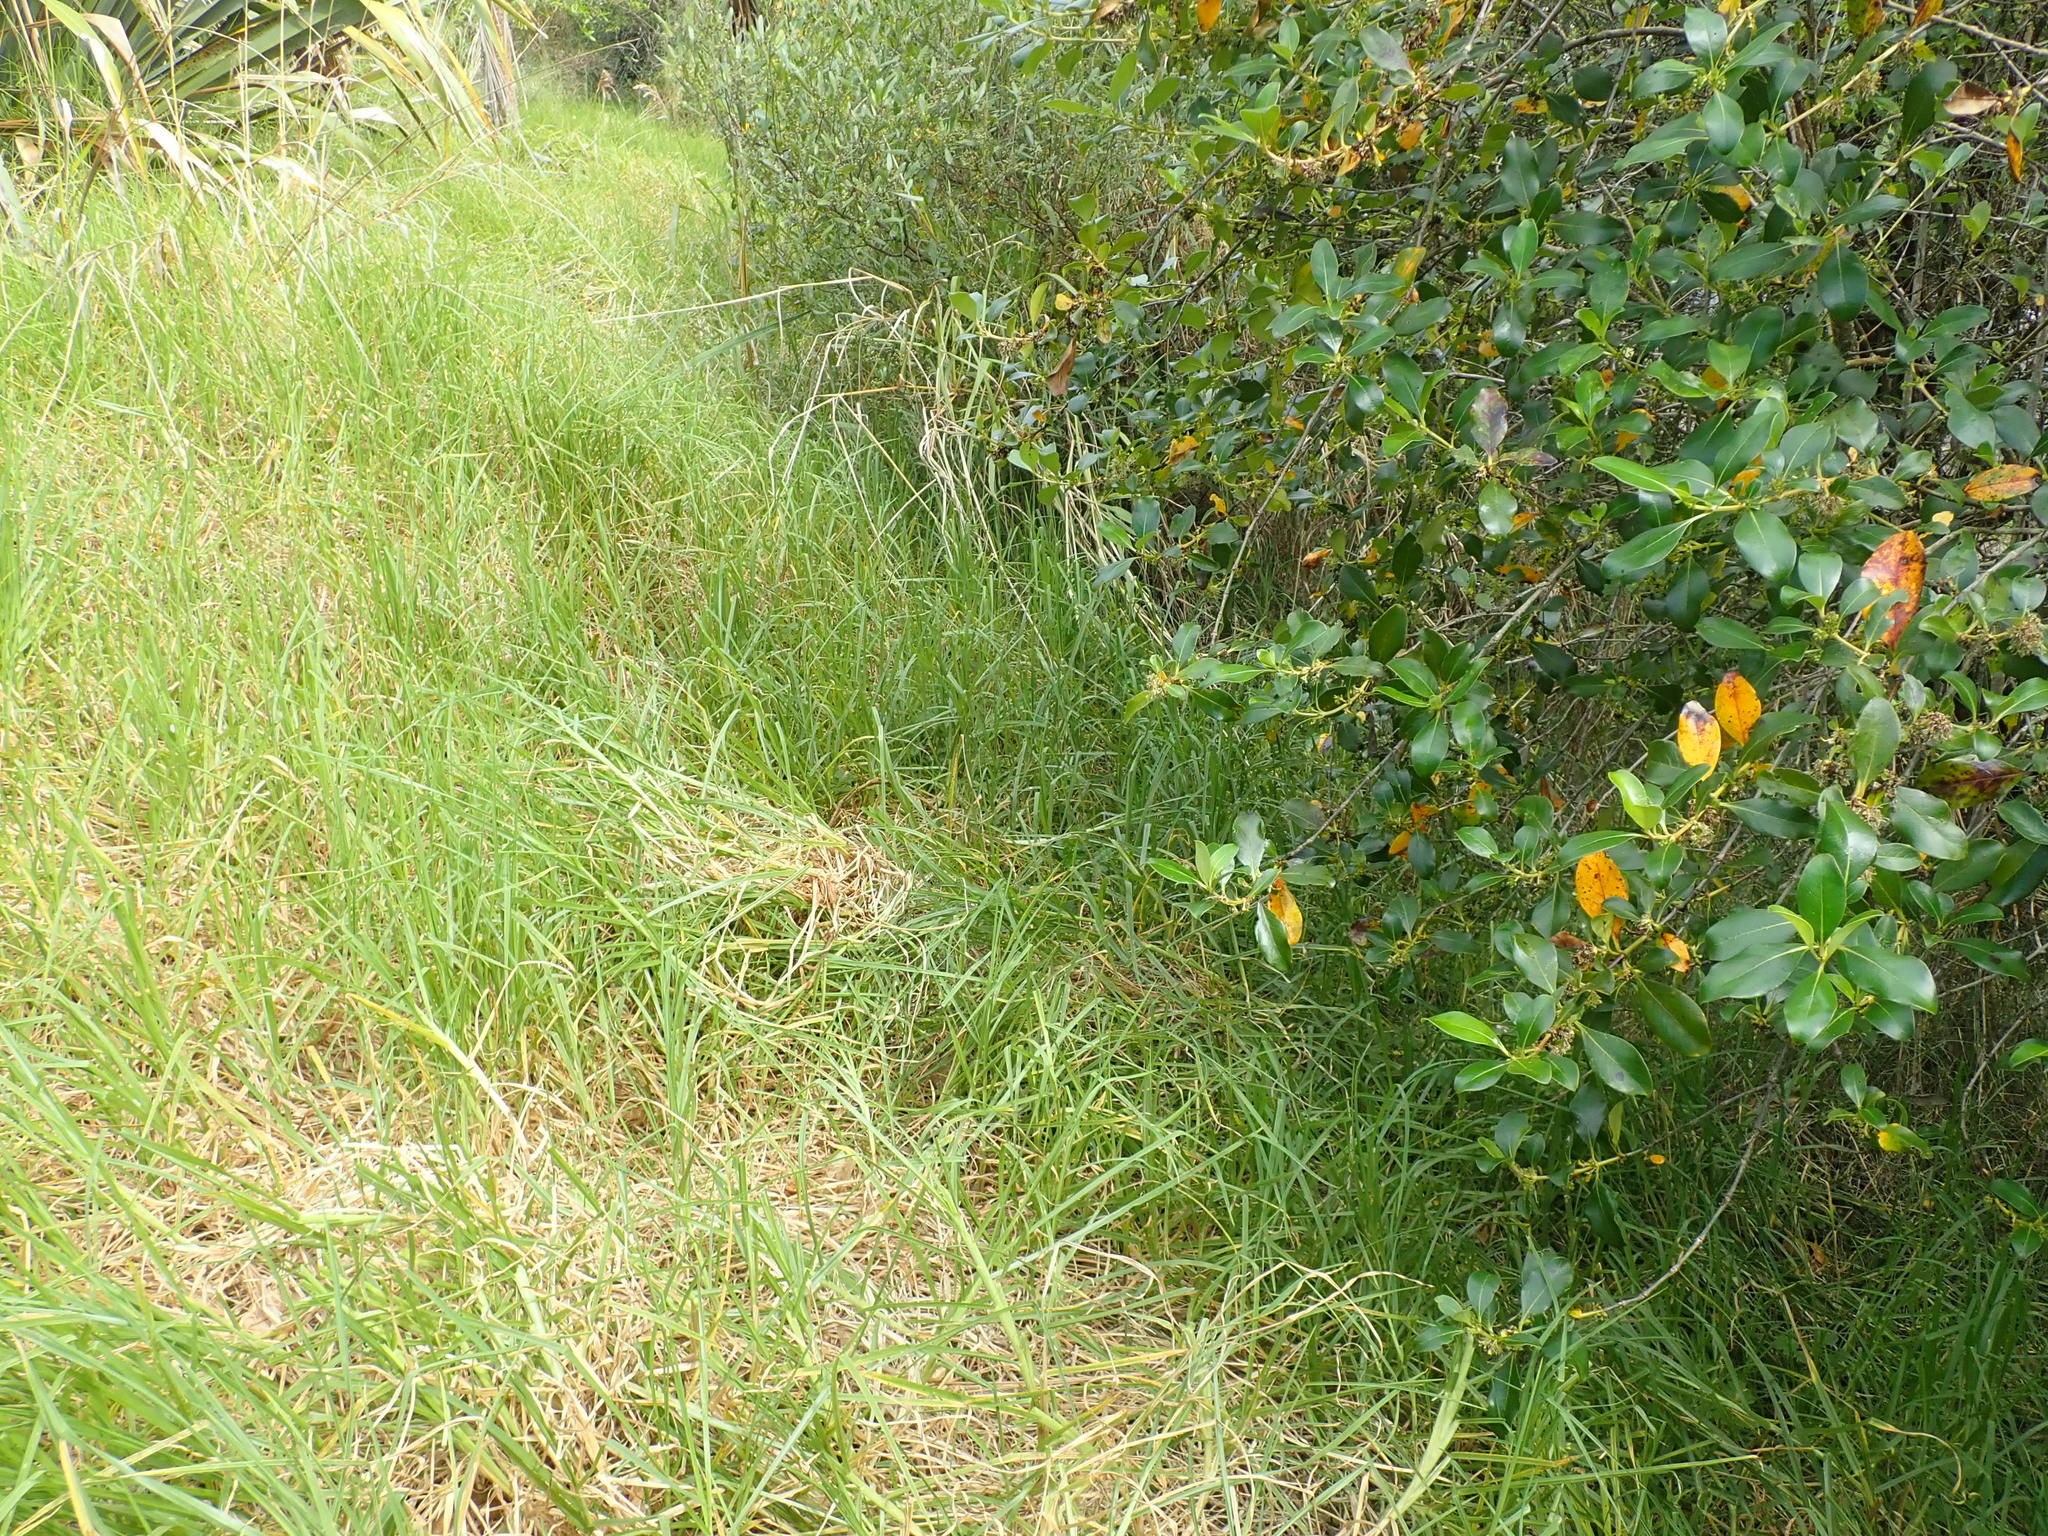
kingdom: Plantae
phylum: Tracheophyta
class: Liliopsida
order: Poales
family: Poaceae
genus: Cenchrus
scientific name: Cenchrus clandestinus
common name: Kikuyugrass
